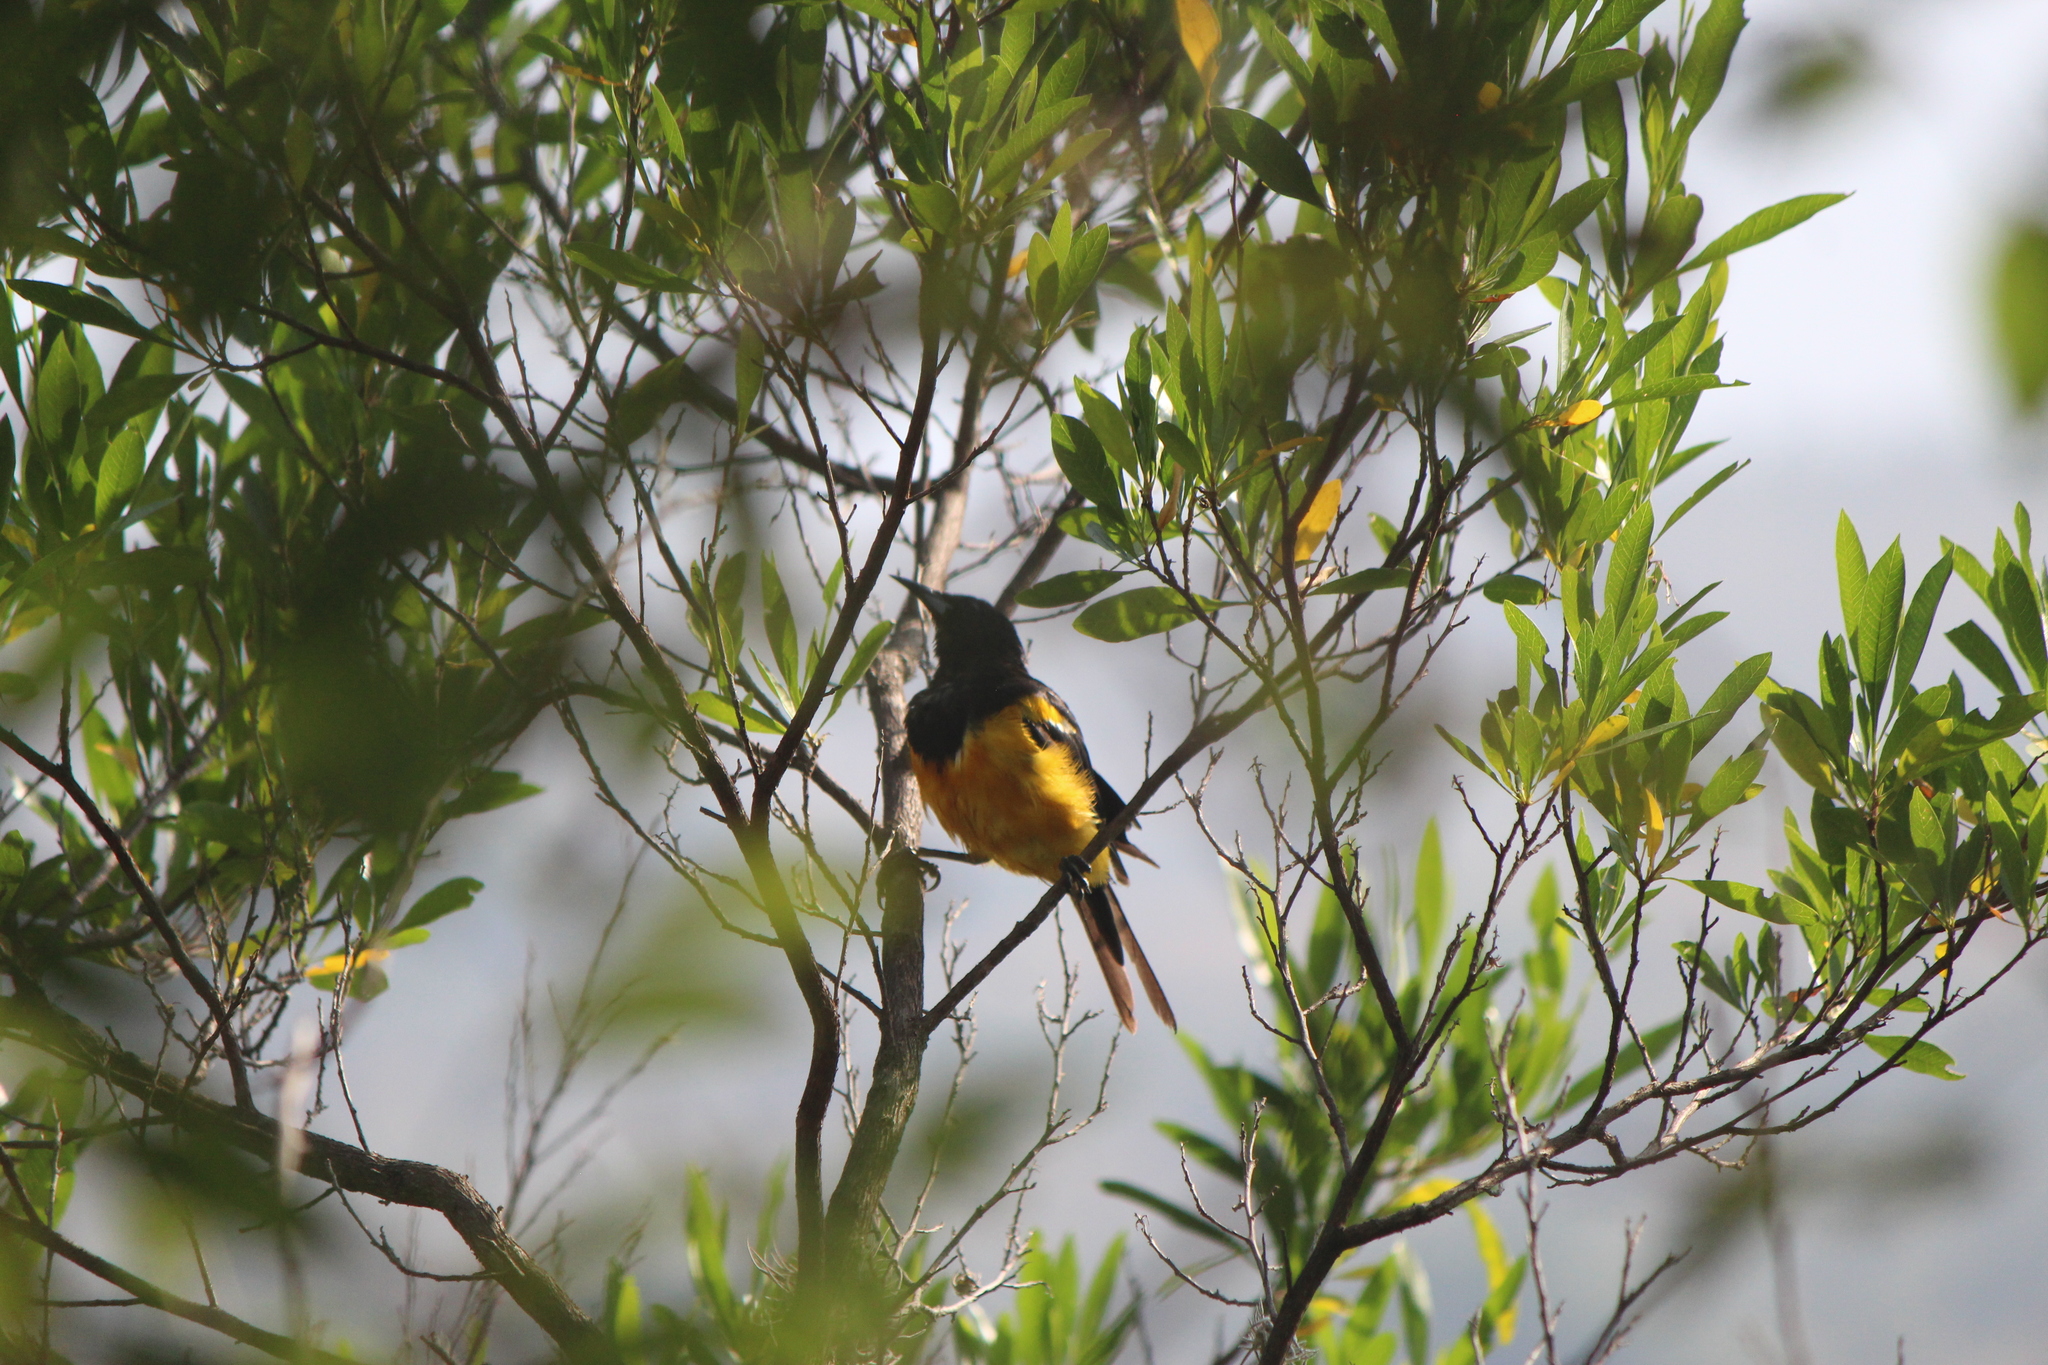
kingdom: Animalia
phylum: Chordata
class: Aves
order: Passeriformes
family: Icteridae
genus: Icterus
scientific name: Icterus wagleri
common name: Black-vented oriole
